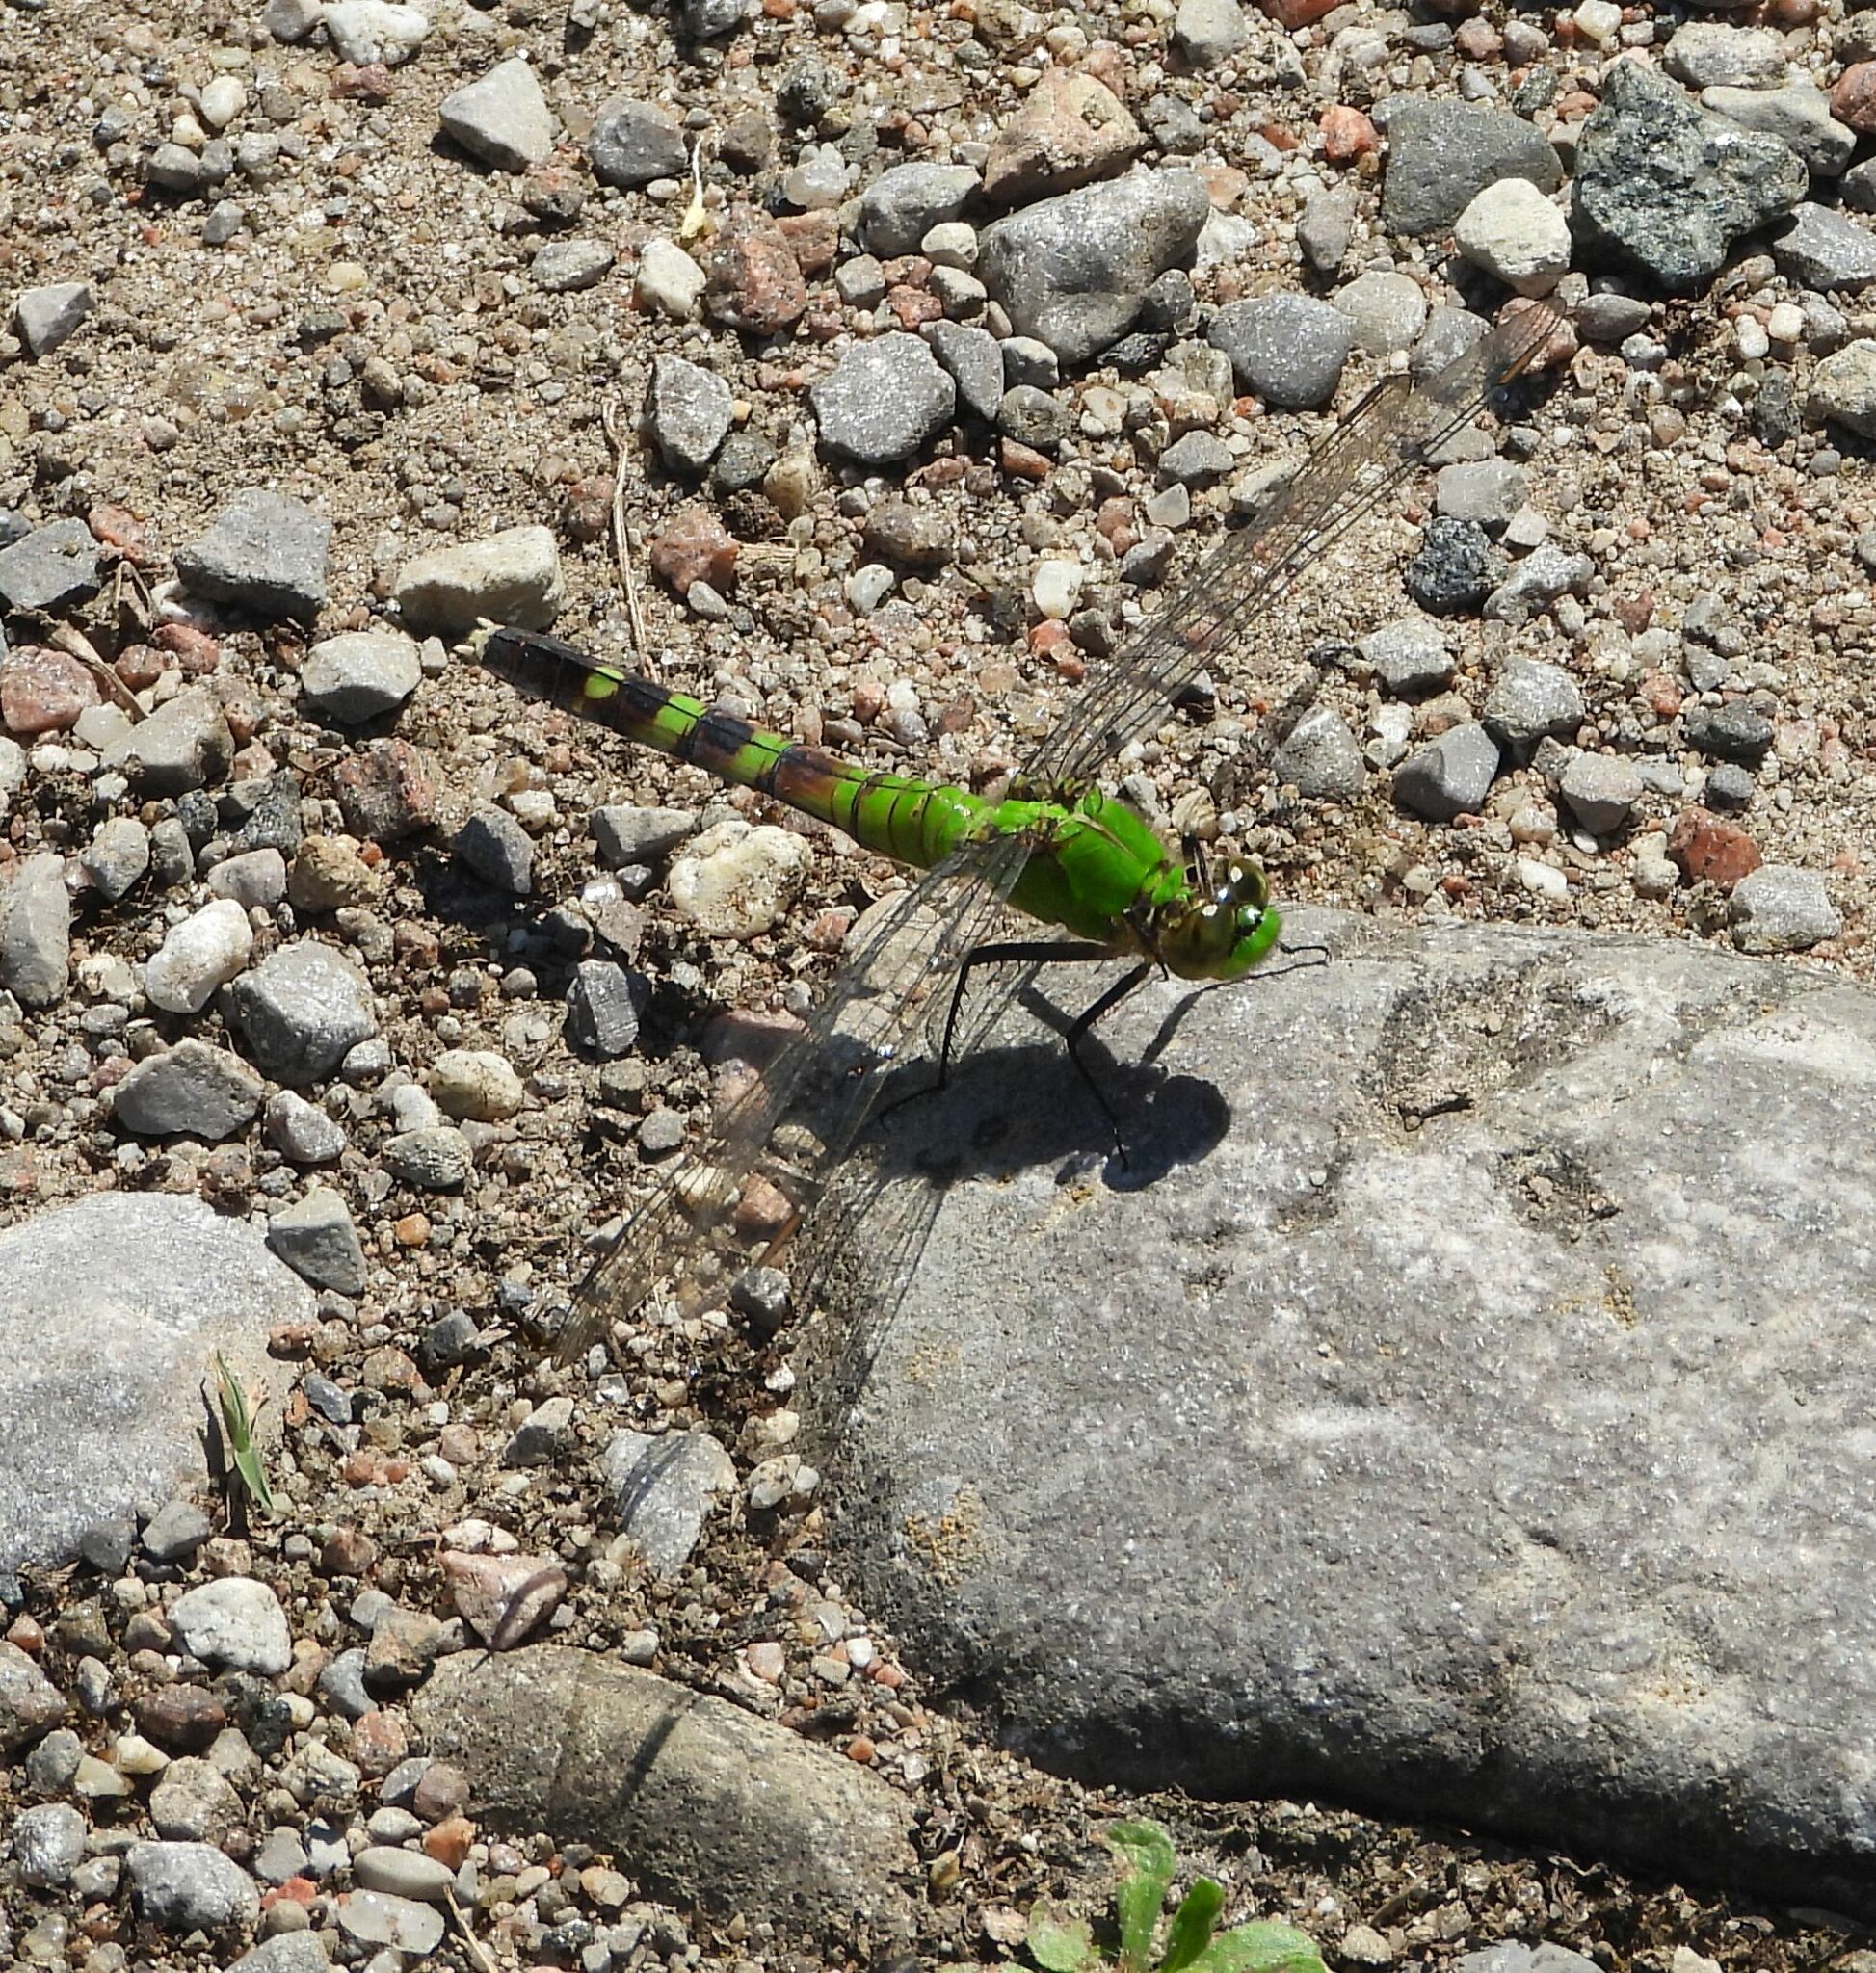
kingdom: Animalia
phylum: Arthropoda
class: Insecta
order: Odonata
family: Libellulidae
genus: Erythemis
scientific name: Erythemis simplicicollis
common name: Eastern pondhawk
